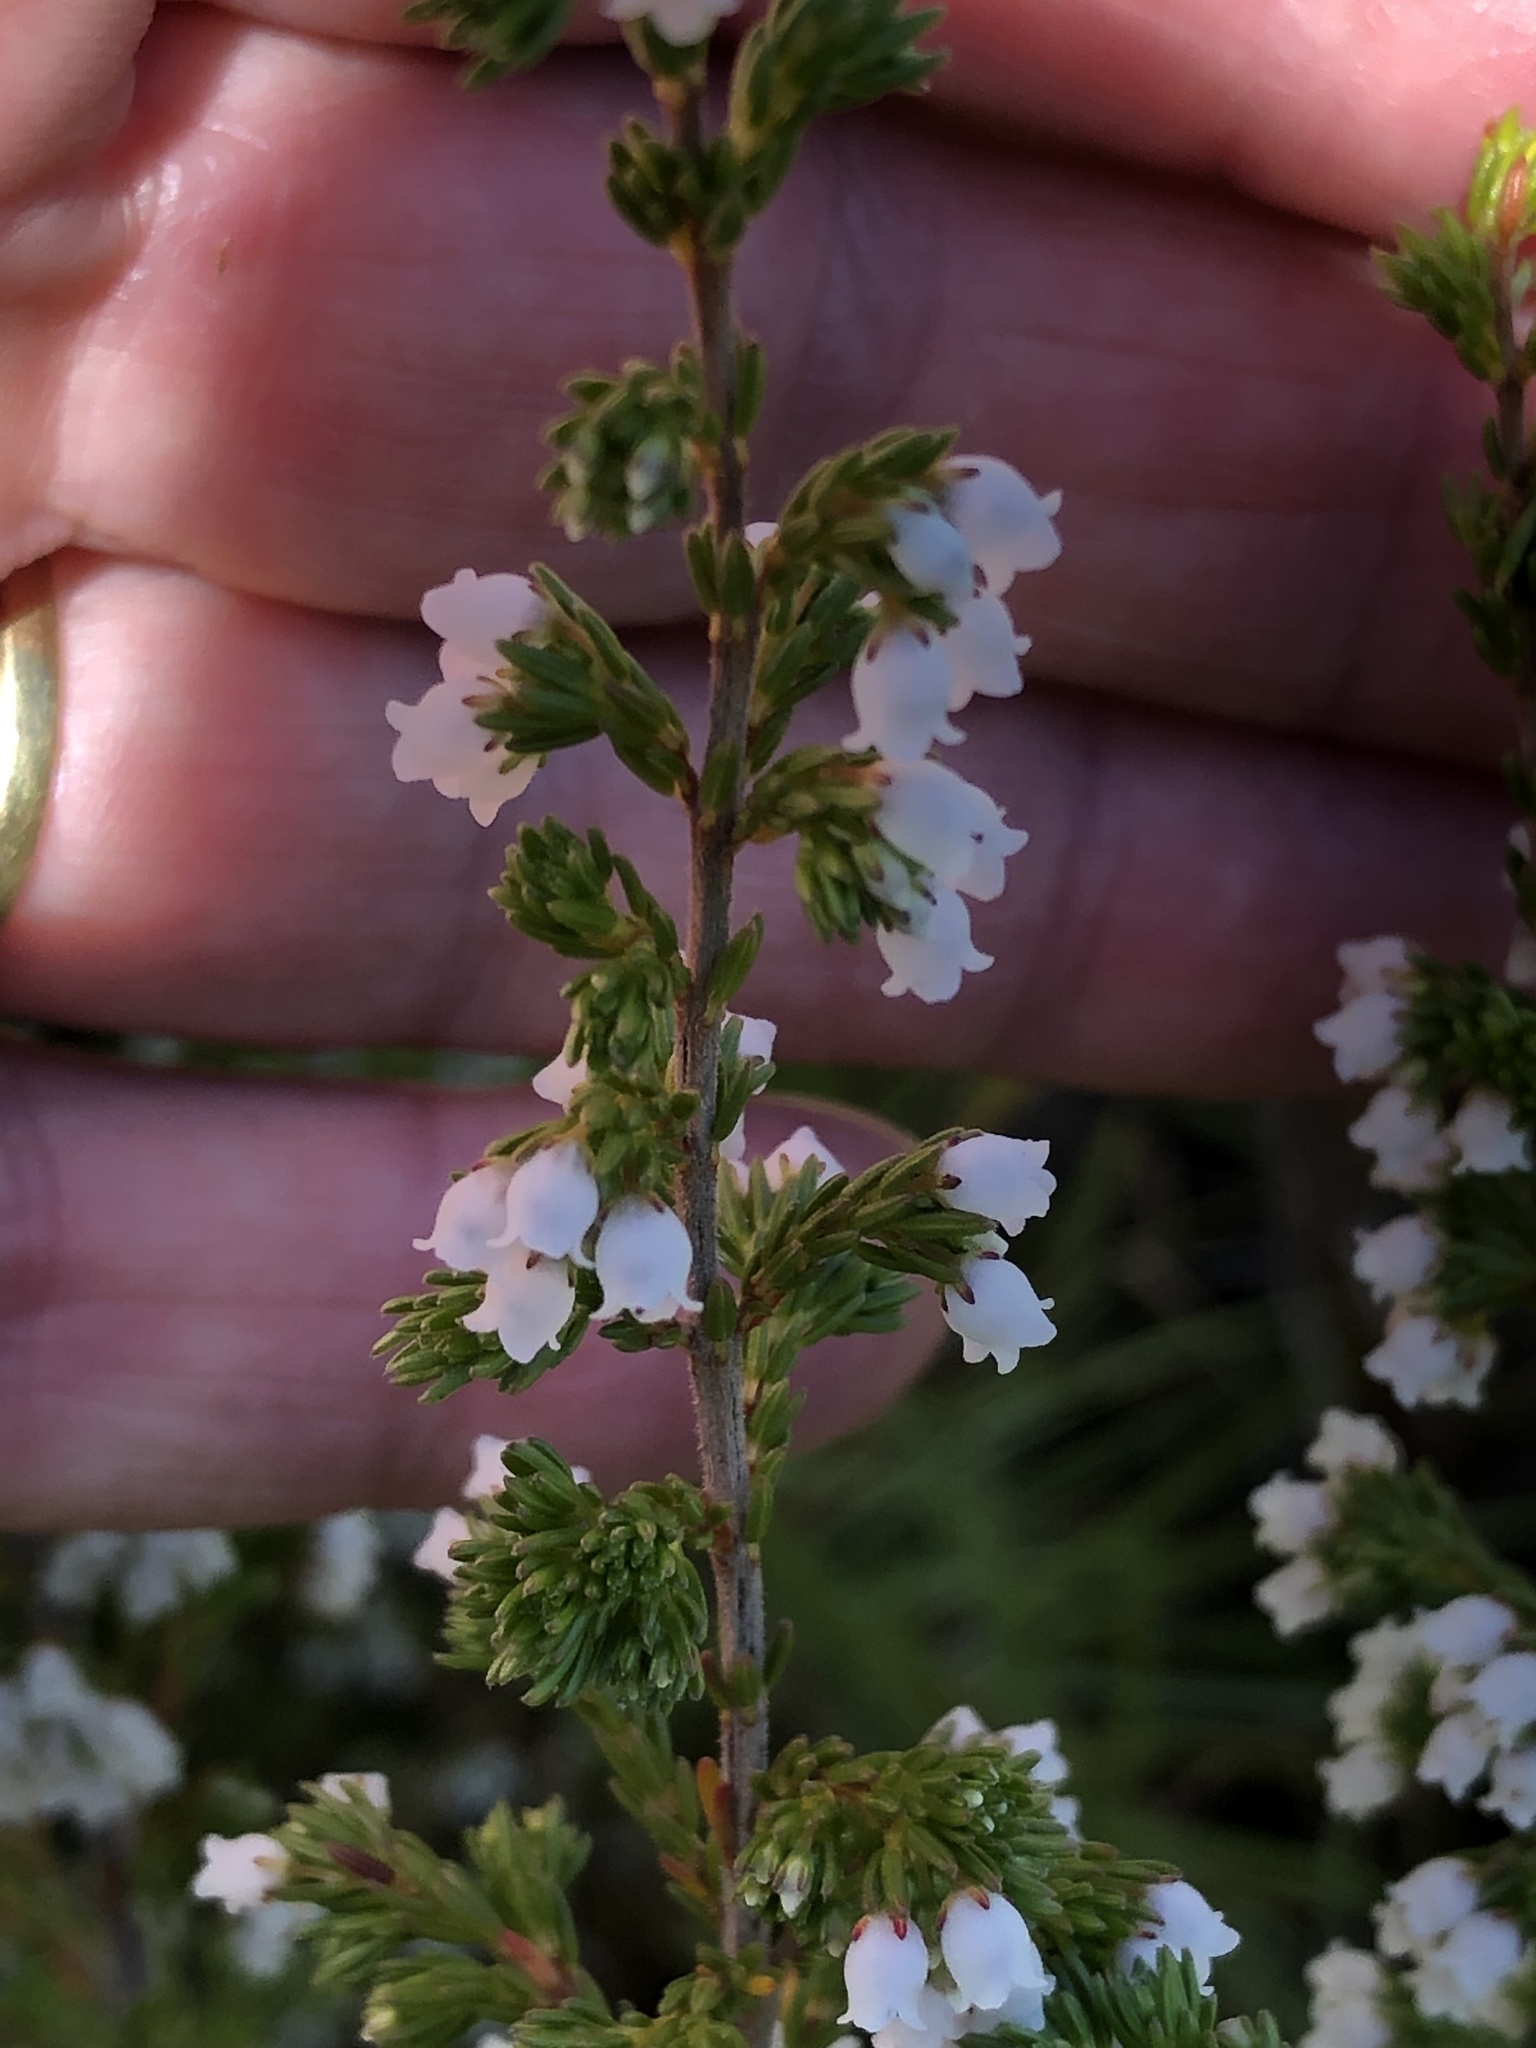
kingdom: Plantae
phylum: Tracheophyta
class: Magnoliopsida
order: Ericales
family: Ericaceae
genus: Erica
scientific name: Erica subdivaricata
